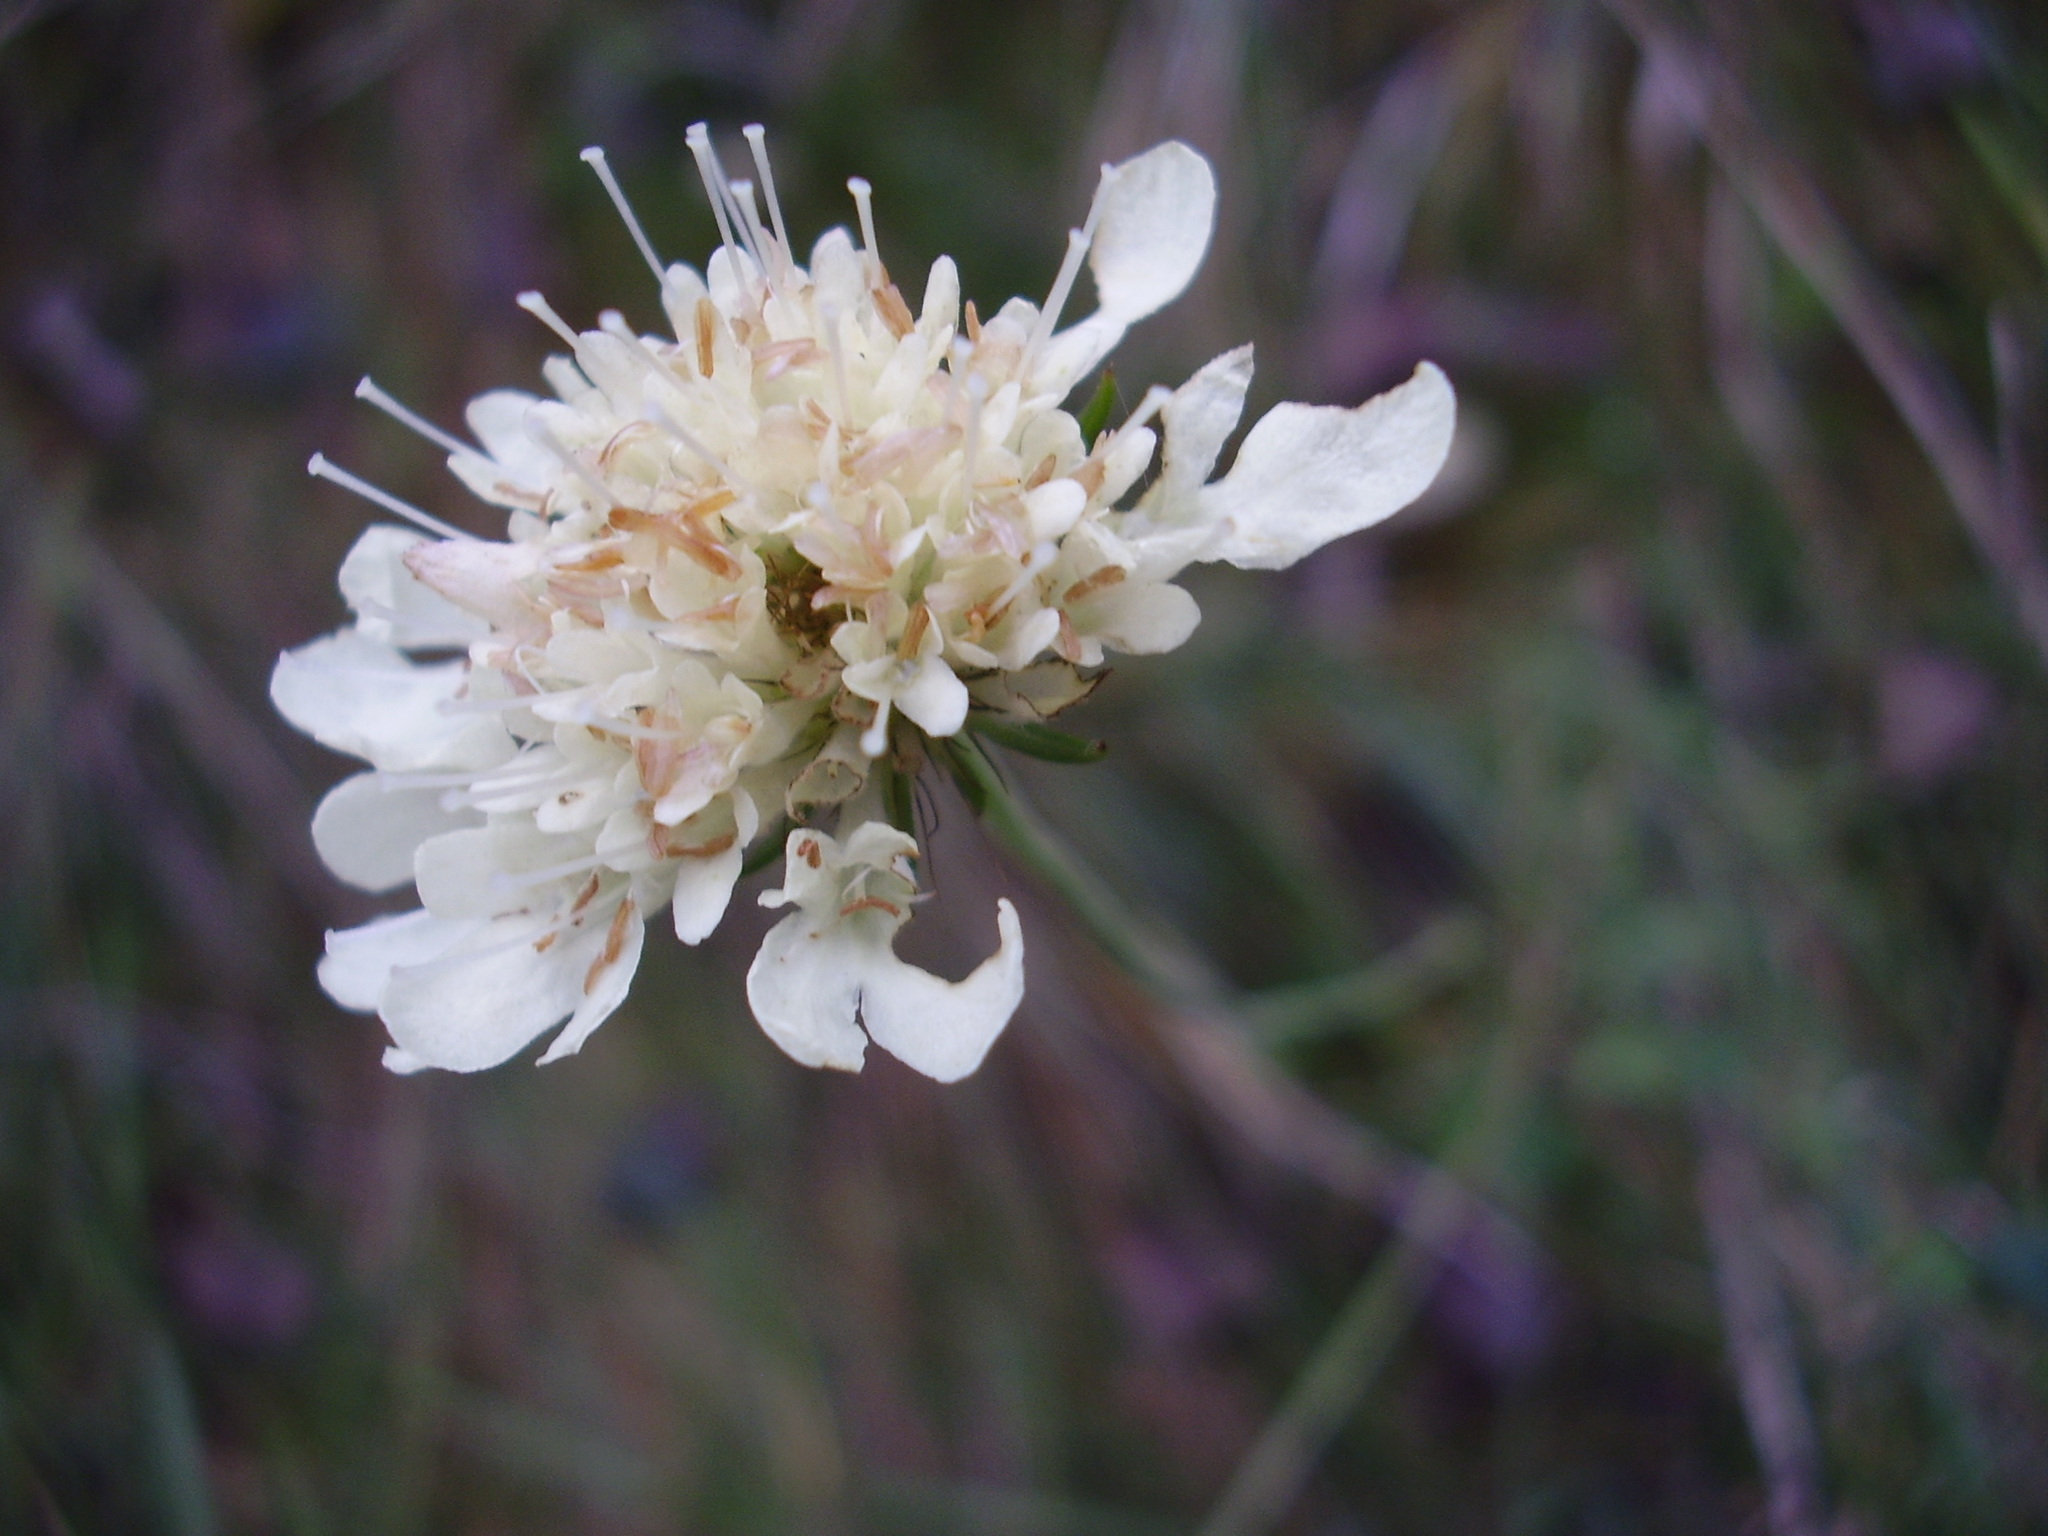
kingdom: Plantae
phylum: Tracheophyta
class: Magnoliopsida
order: Dipsacales
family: Caprifoliaceae
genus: Scabiosa
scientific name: Scabiosa ochroleuca
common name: Cream pincushions
